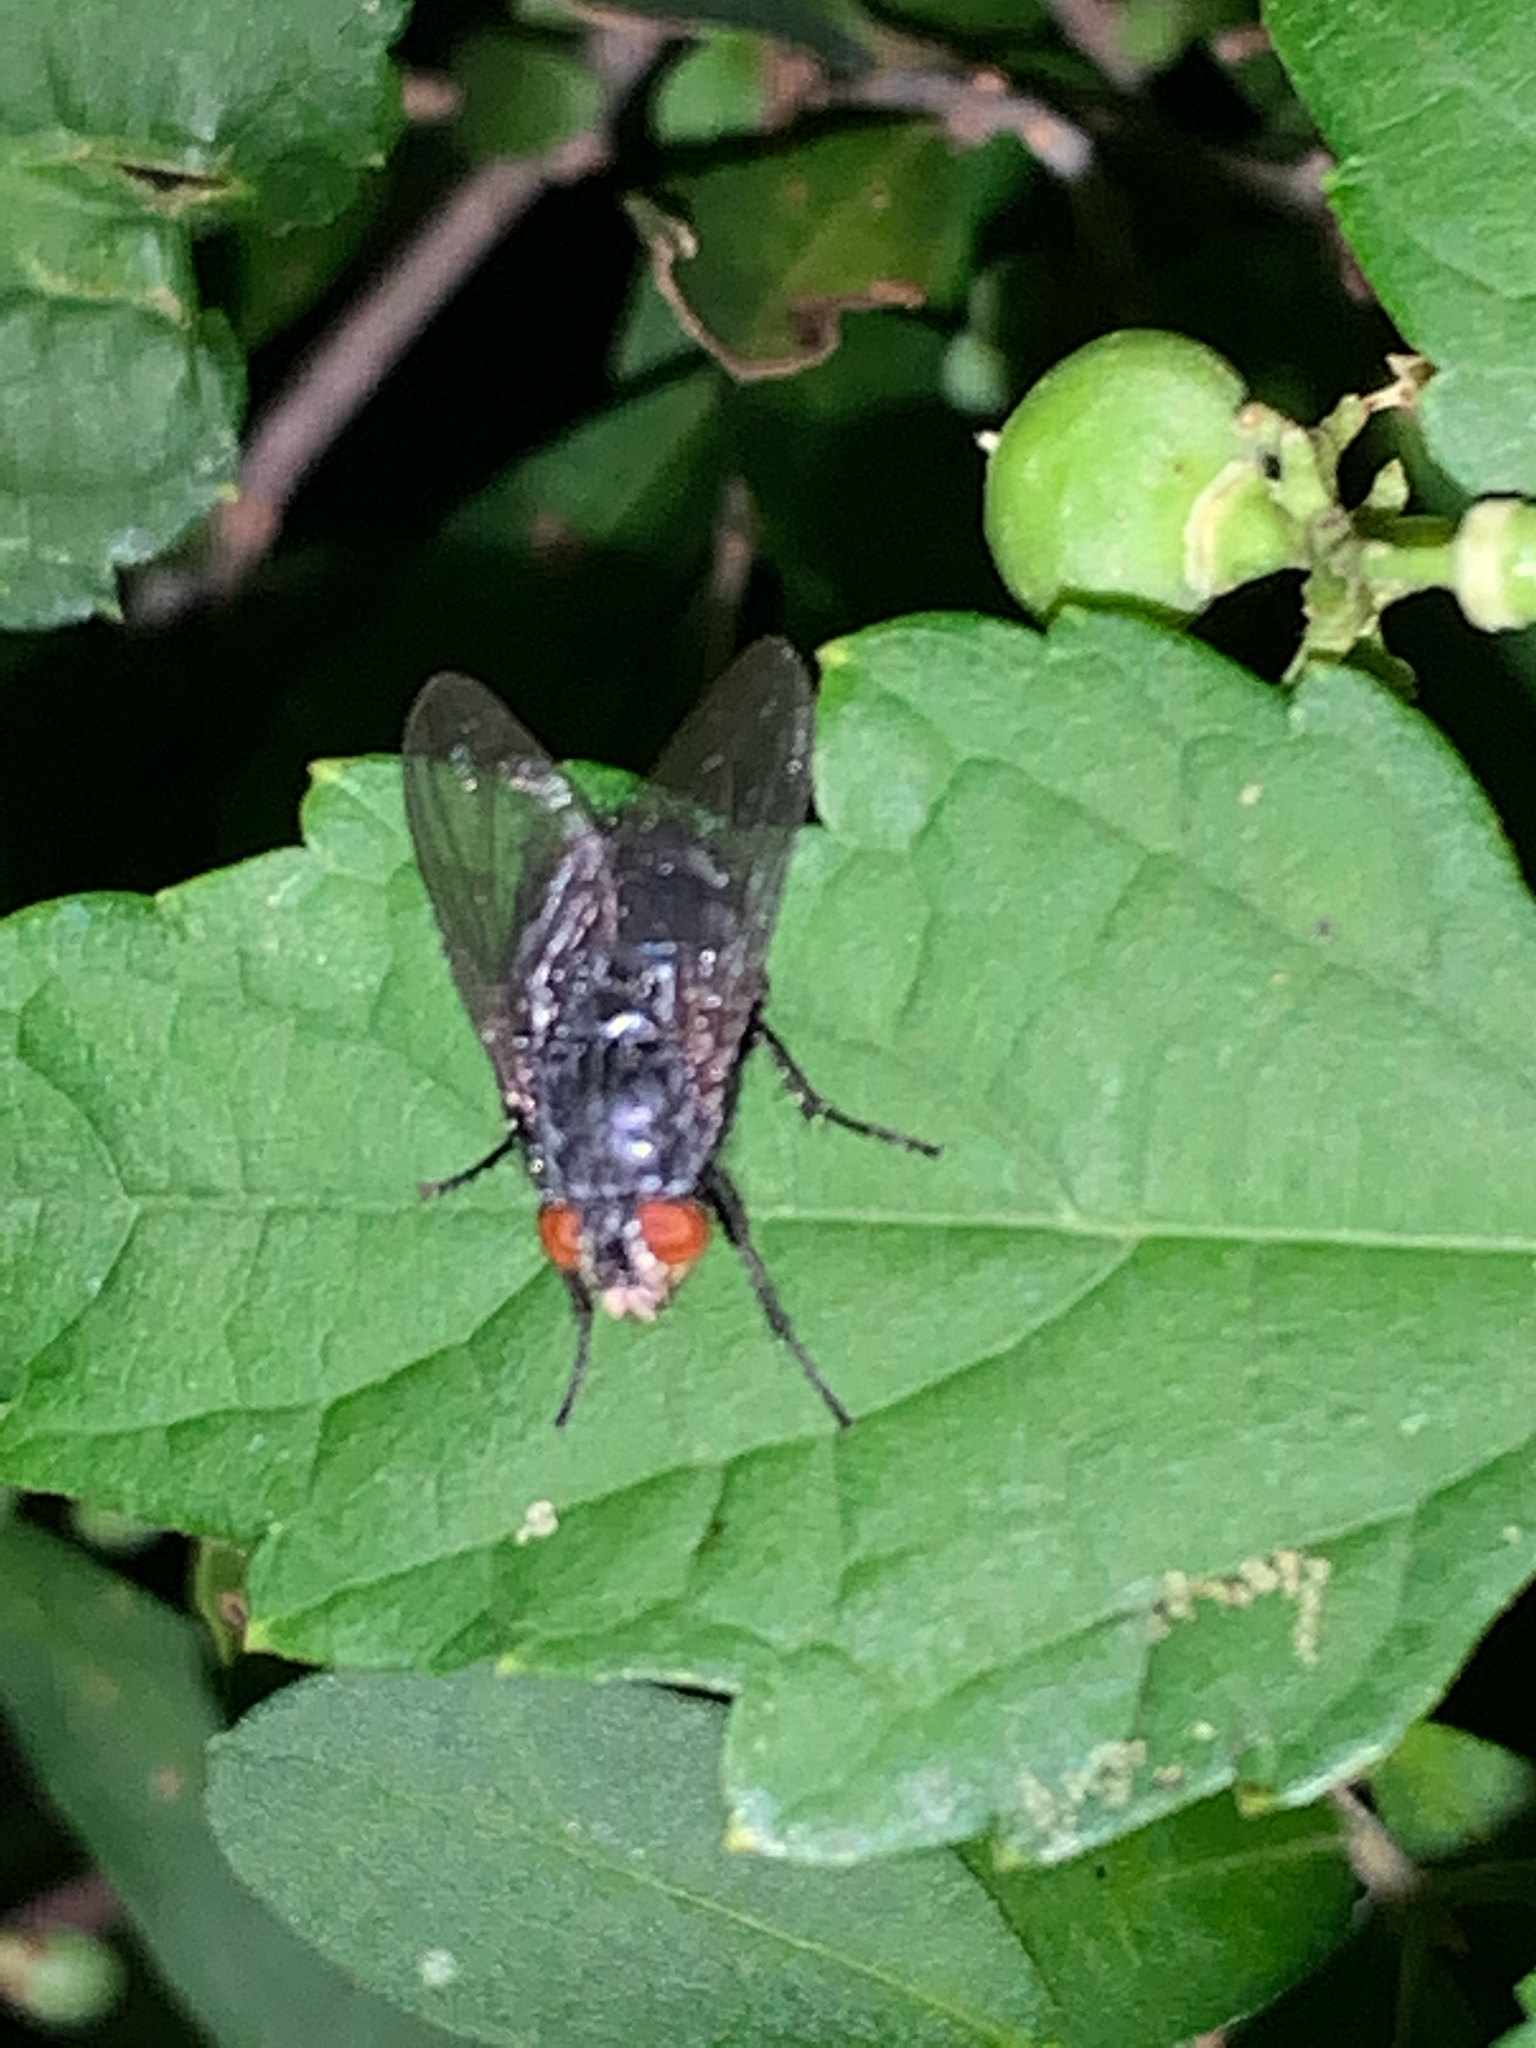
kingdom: Animalia
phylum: Arthropoda
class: Insecta
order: Diptera
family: Calliphoridae
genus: Calliphora
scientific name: Calliphora vicina
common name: Common blow flie
